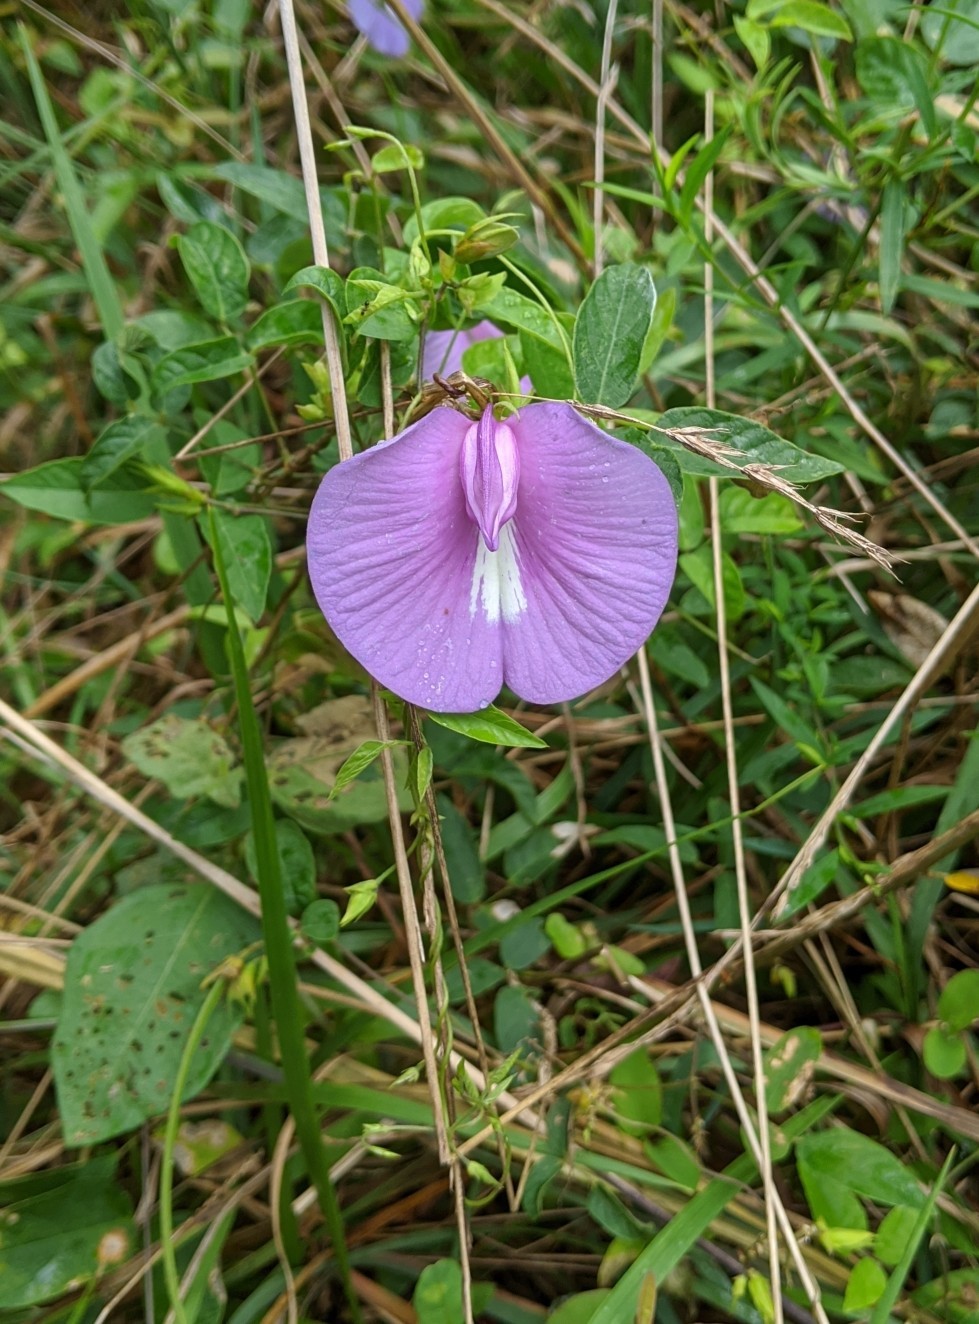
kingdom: Plantae
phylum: Tracheophyta
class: Magnoliopsida
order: Fabales
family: Fabaceae
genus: Centrosema
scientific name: Centrosema virginianum
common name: Butterfly-pea
